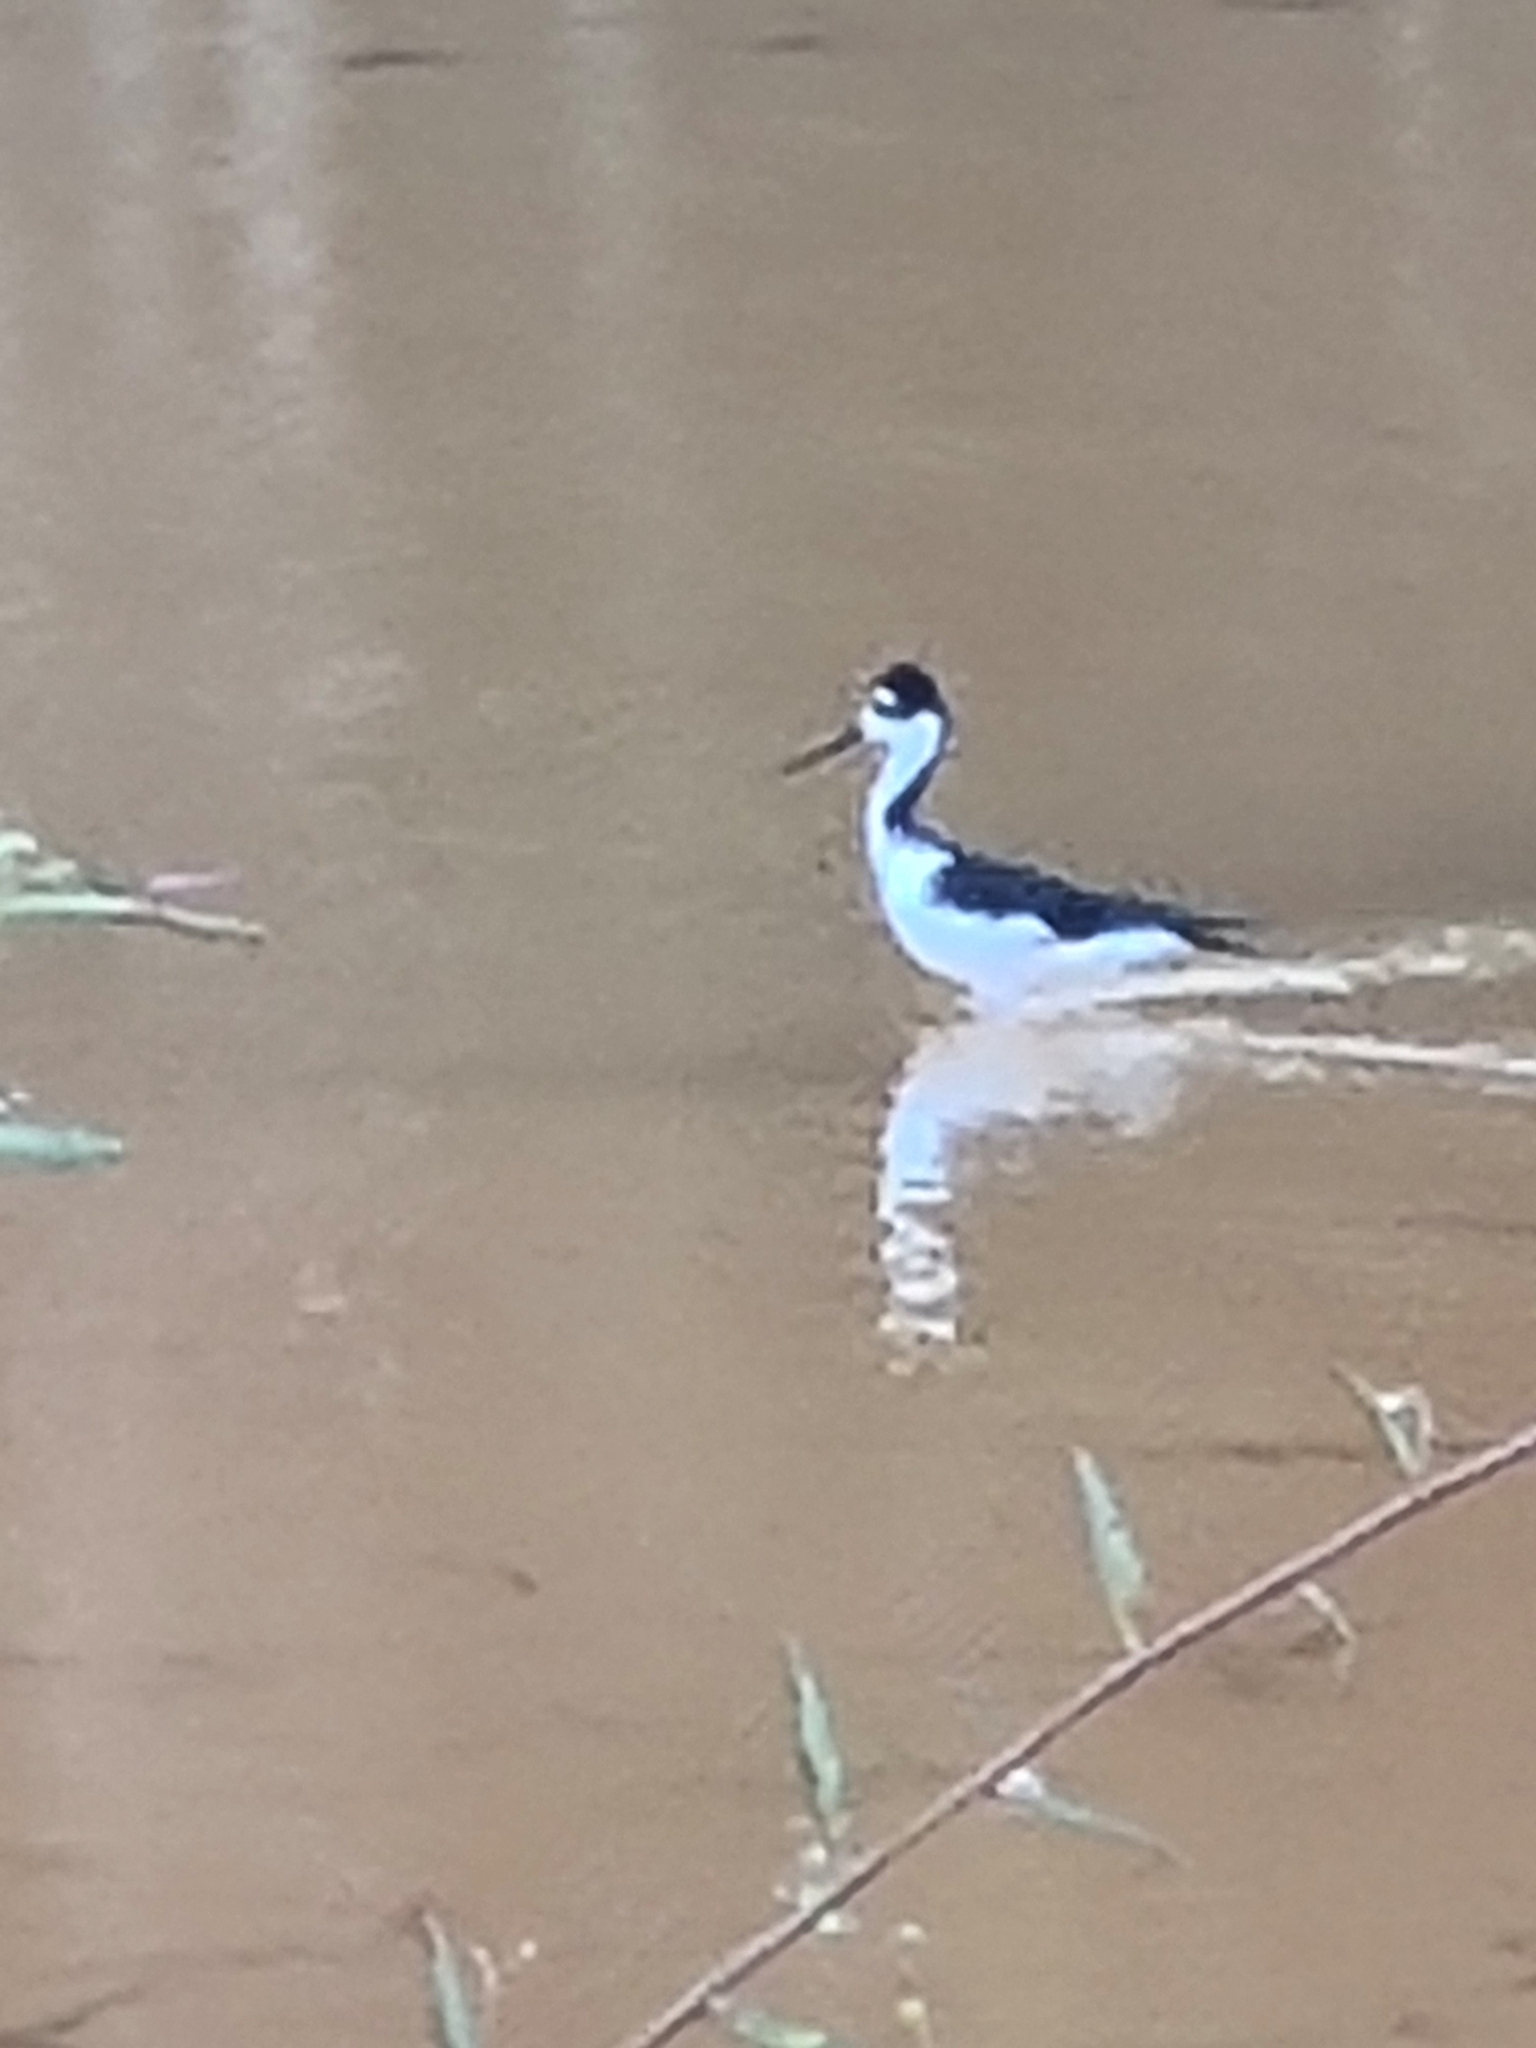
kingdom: Animalia
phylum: Chordata
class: Aves
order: Charadriiformes
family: Recurvirostridae
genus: Himantopus
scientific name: Himantopus mexicanus
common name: Black-necked stilt
